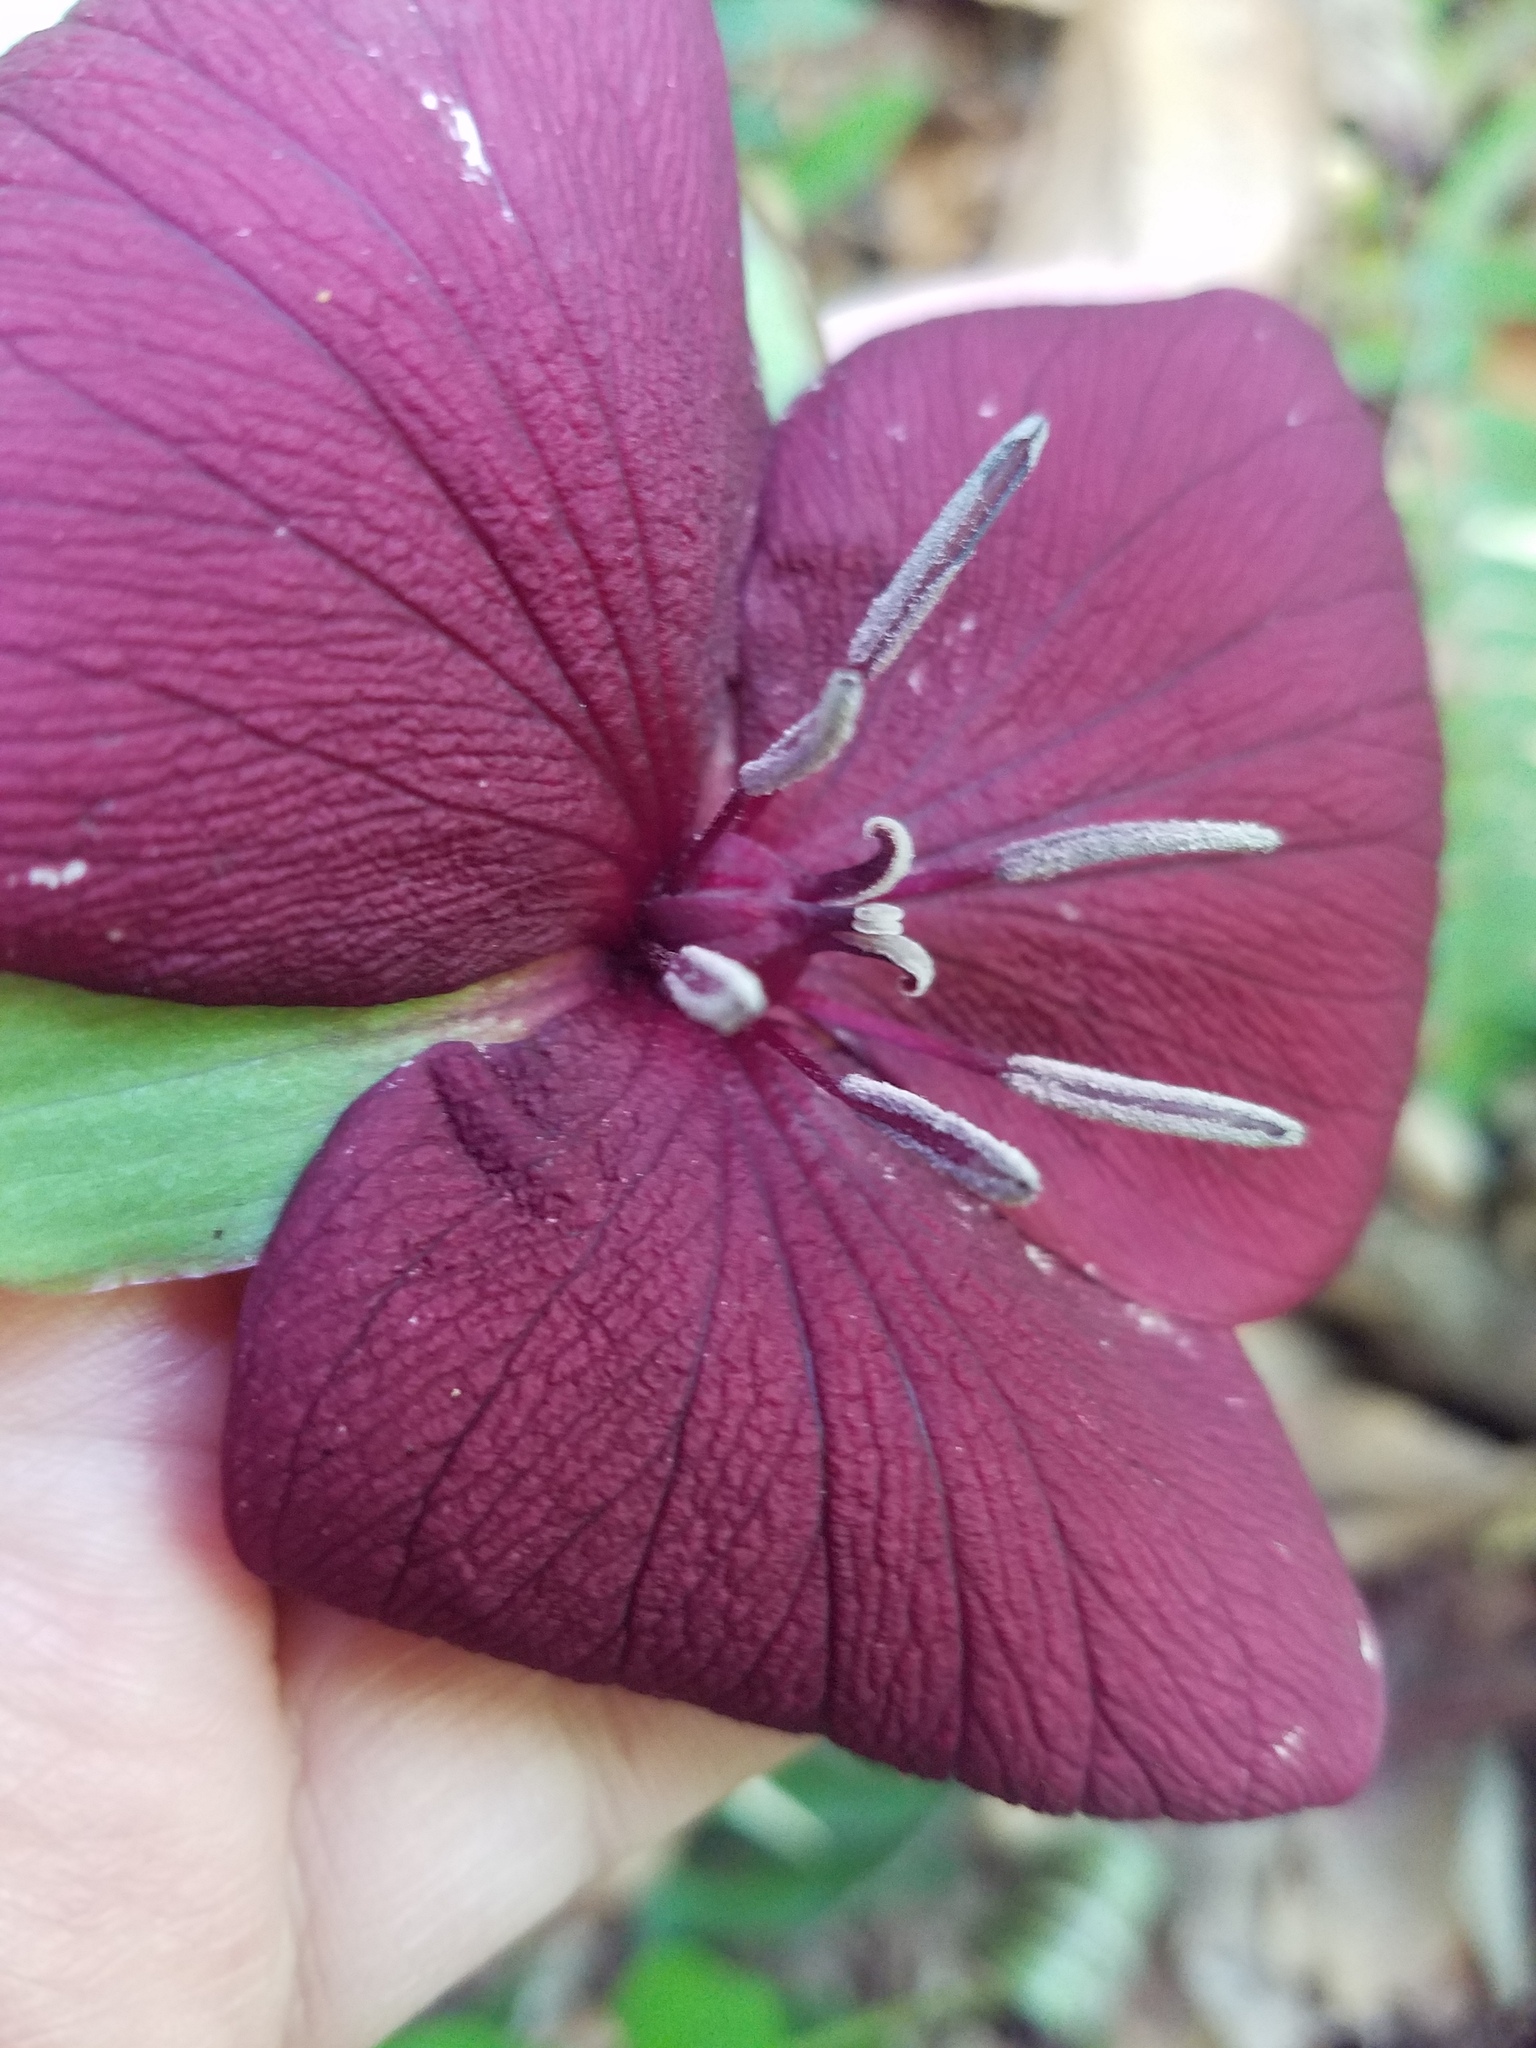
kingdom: Plantae
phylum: Tracheophyta
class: Liliopsida
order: Liliales
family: Melanthiaceae
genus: Trillium
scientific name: Trillium vaseyi
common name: Sweet trillium
